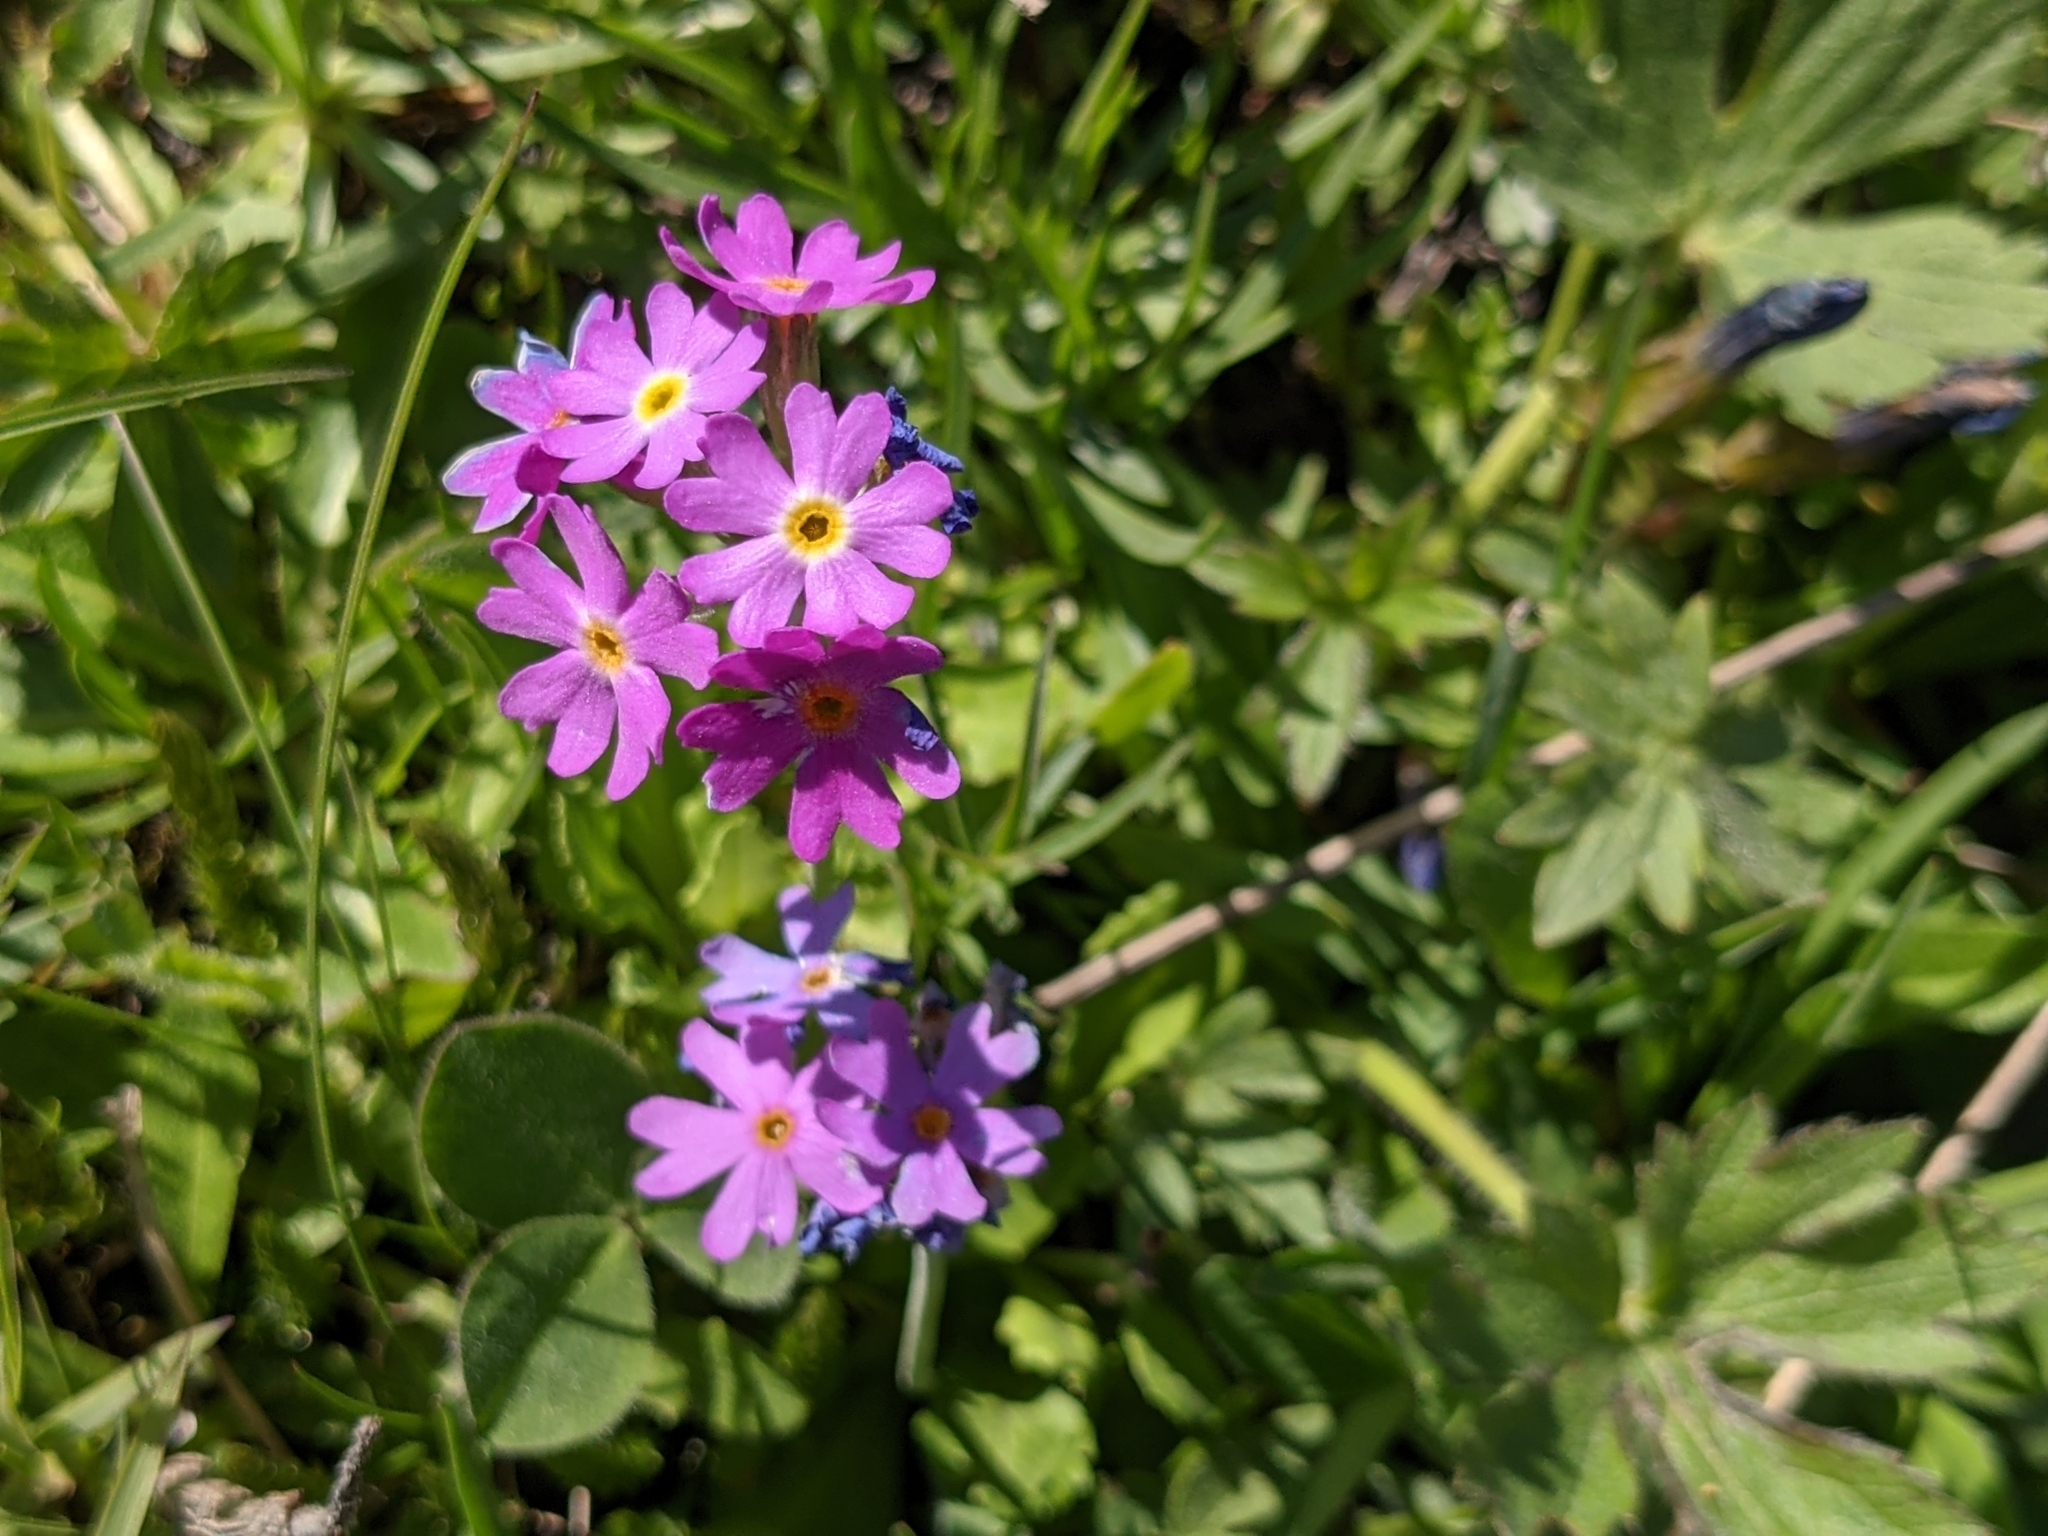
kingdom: Plantae
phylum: Tracheophyta
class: Magnoliopsida
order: Ericales
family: Primulaceae
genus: Primula
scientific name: Primula farinosa
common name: Bird's-eye primrose
